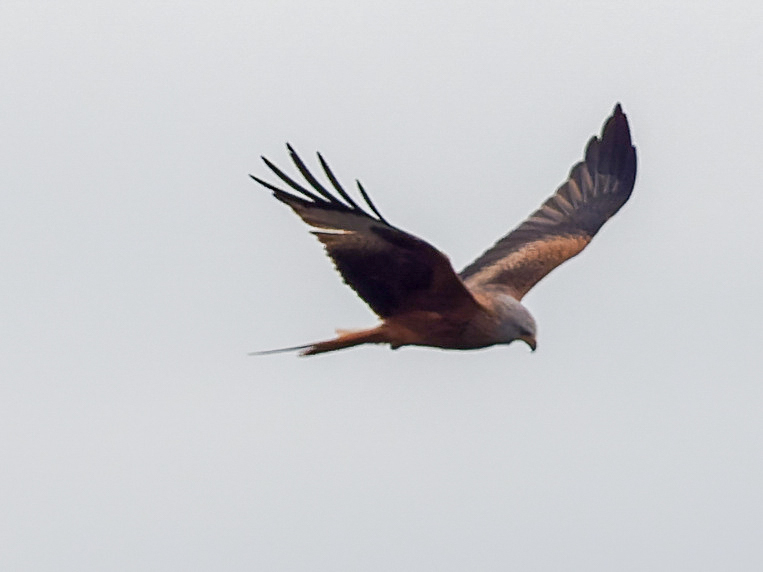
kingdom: Animalia
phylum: Chordata
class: Aves
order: Accipitriformes
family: Accipitridae
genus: Milvus
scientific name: Milvus milvus
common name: Red kite
